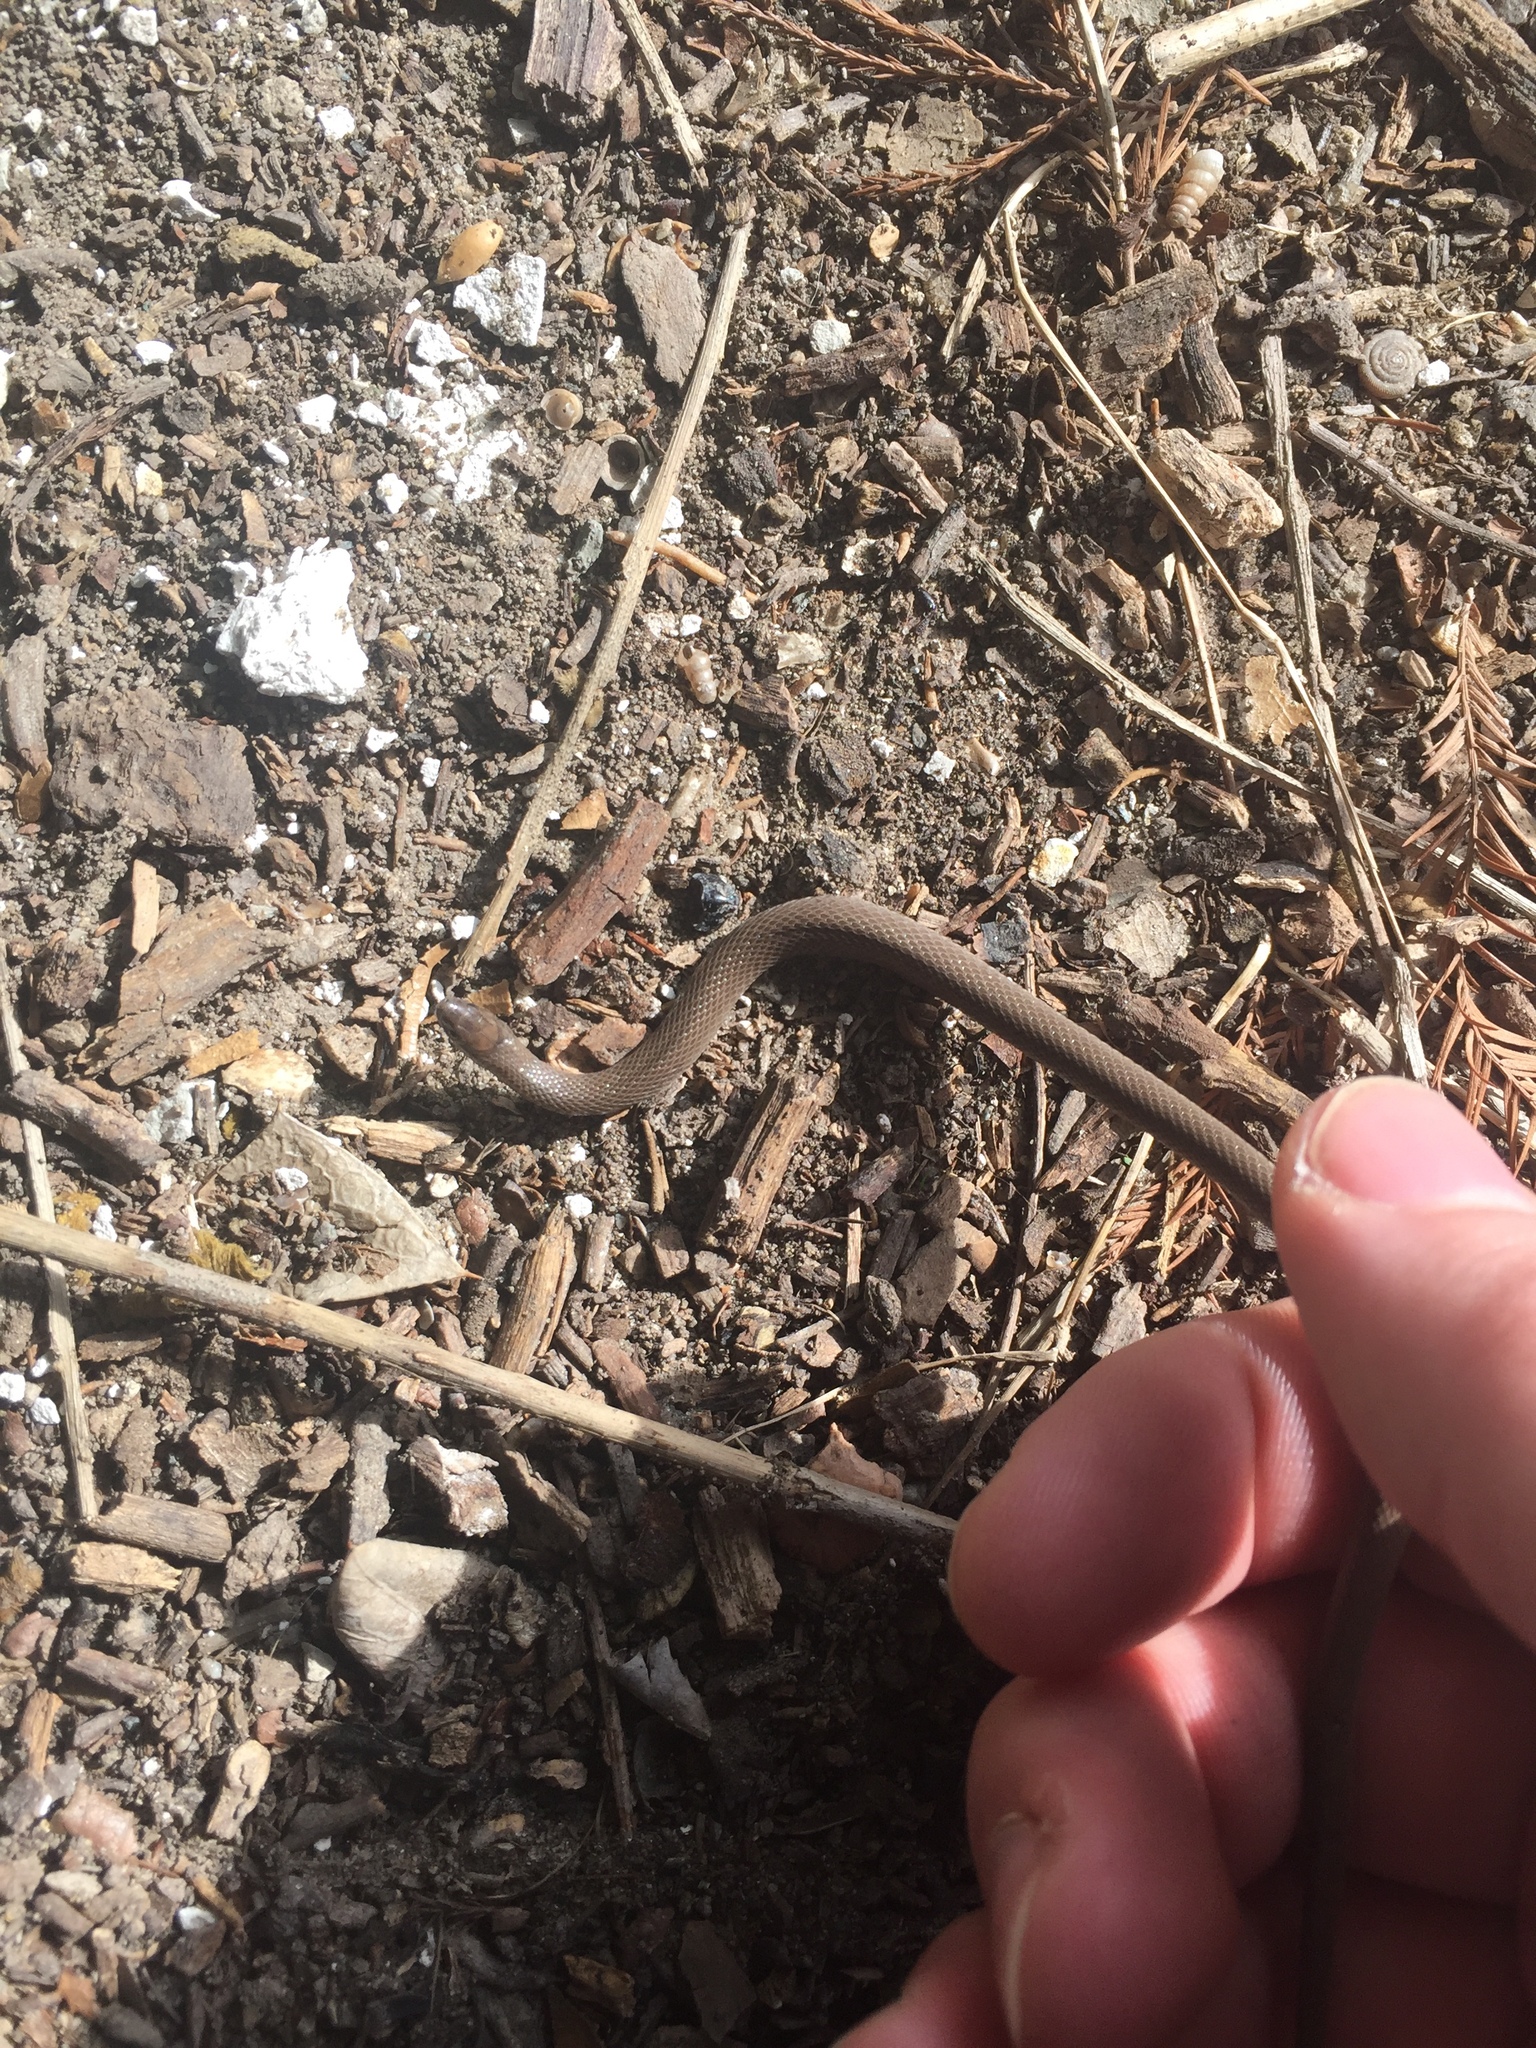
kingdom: Animalia
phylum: Chordata
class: Squamata
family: Colubridae
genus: Haldea
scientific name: Haldea striatula
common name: Rough earth snake
